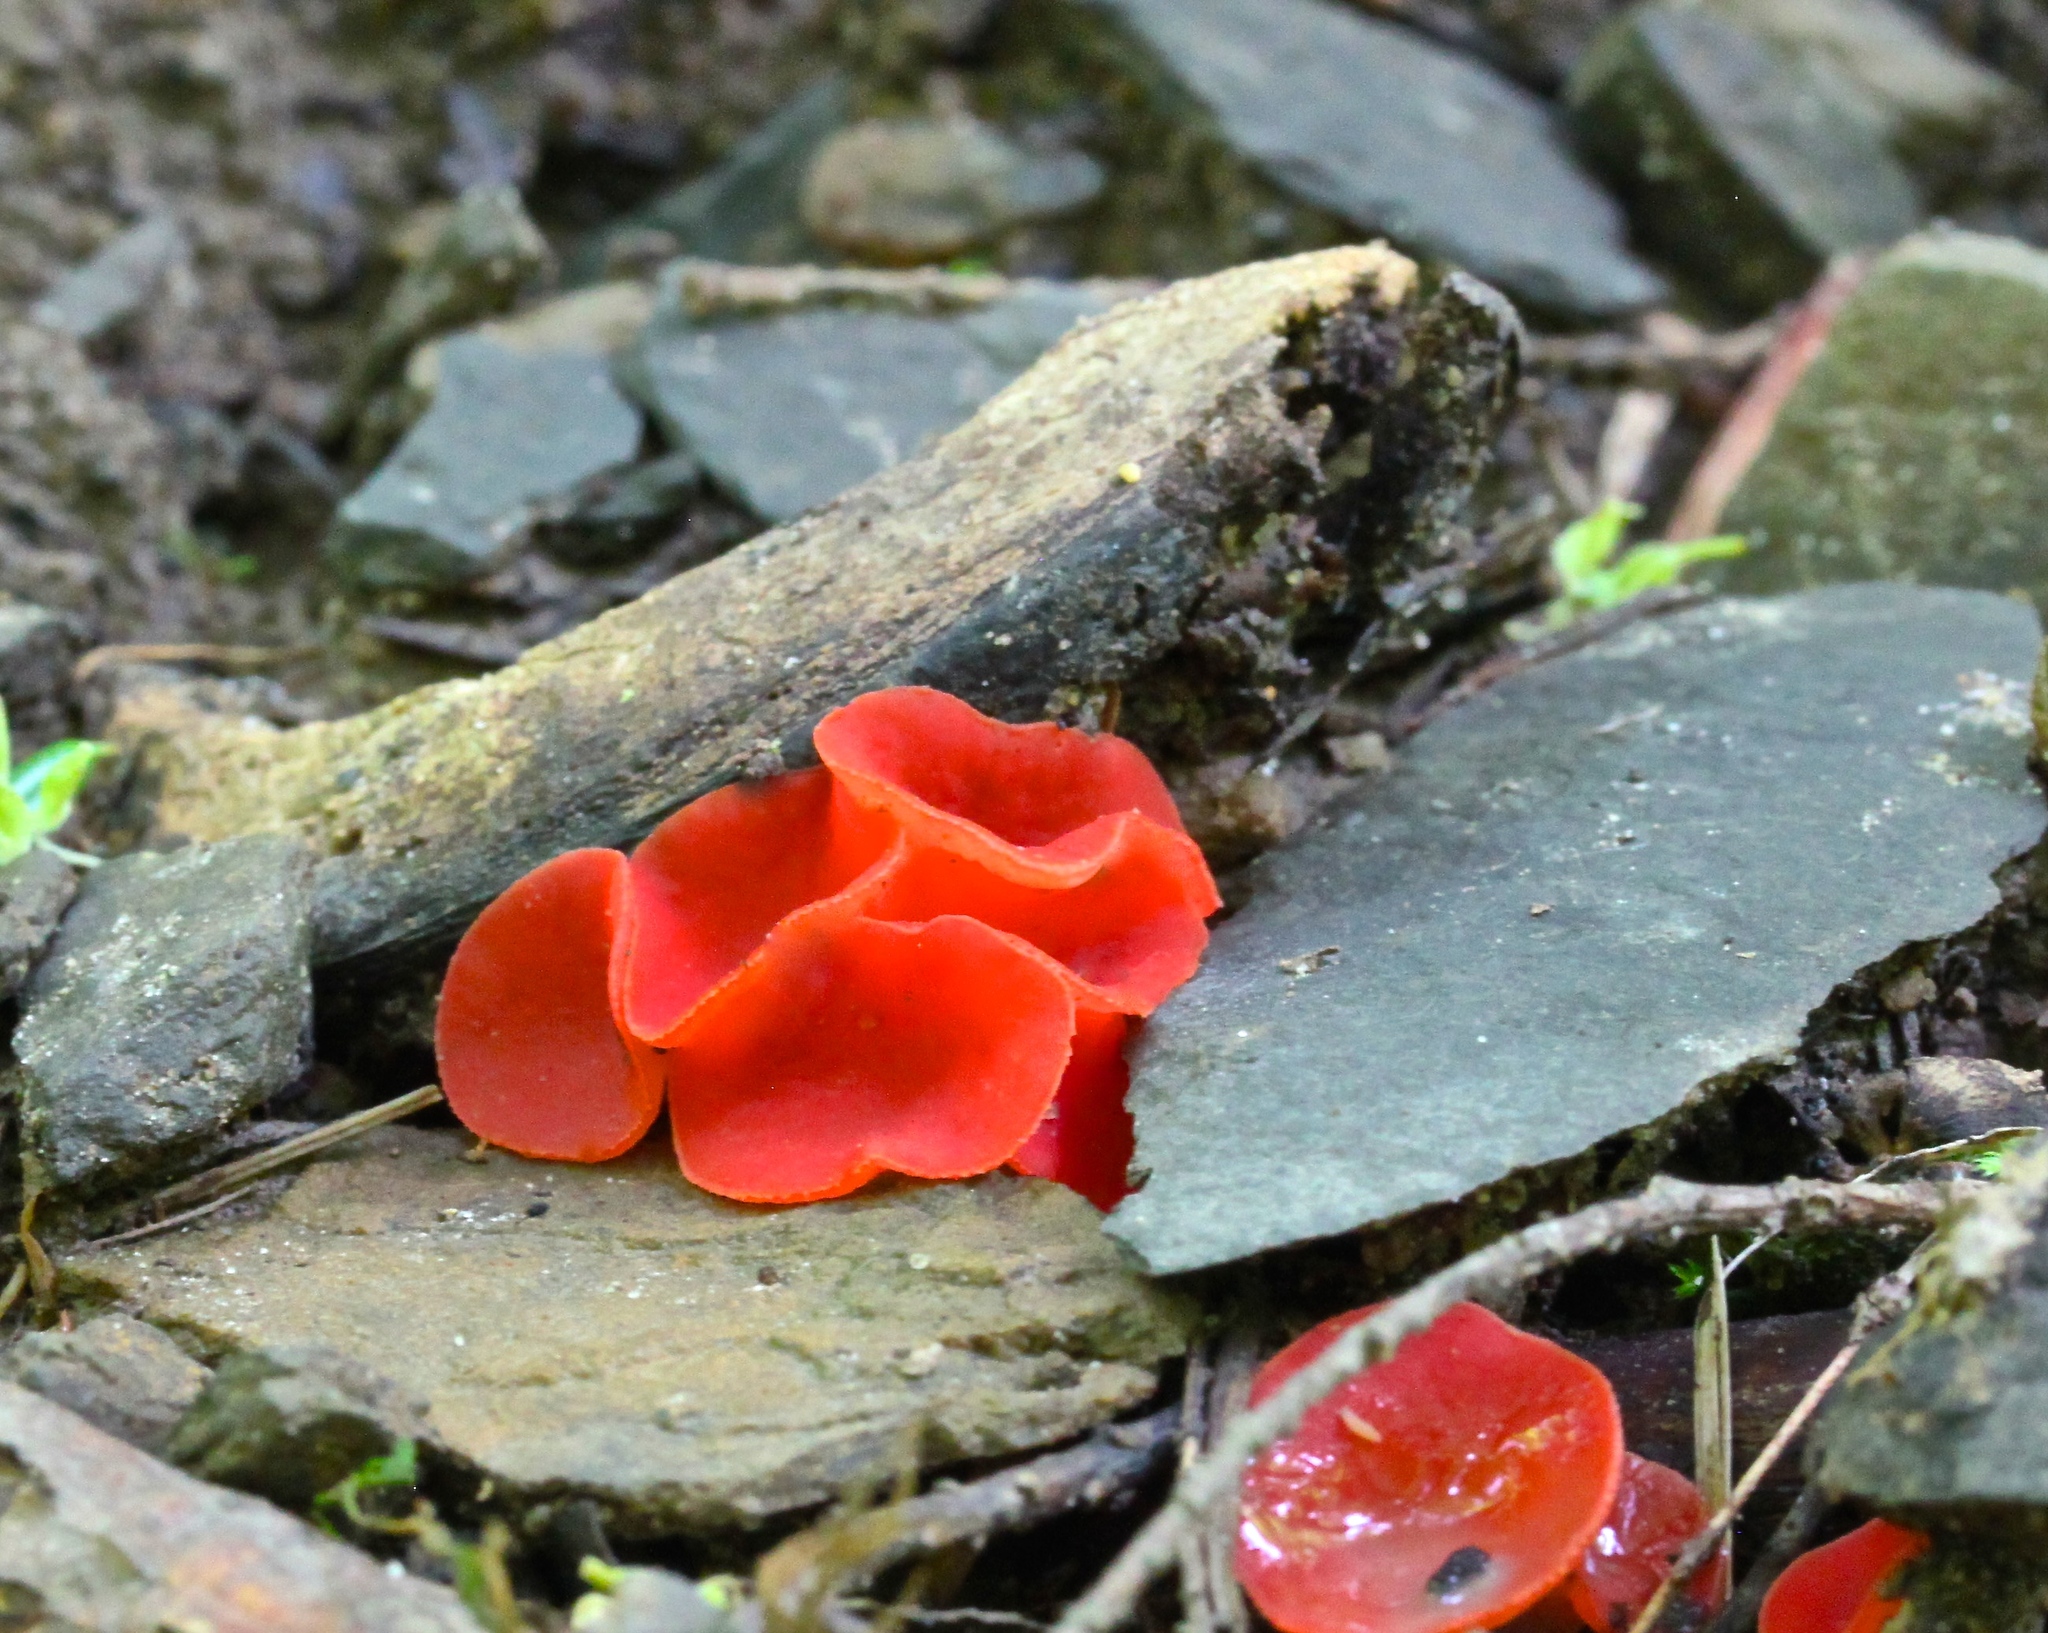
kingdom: Fungi
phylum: Ascomycota
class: Pezizomycetes
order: Pezizales
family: Sarcoscyphaceae
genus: Sarcoscypha
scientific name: Sarcoscypha occidentalis
